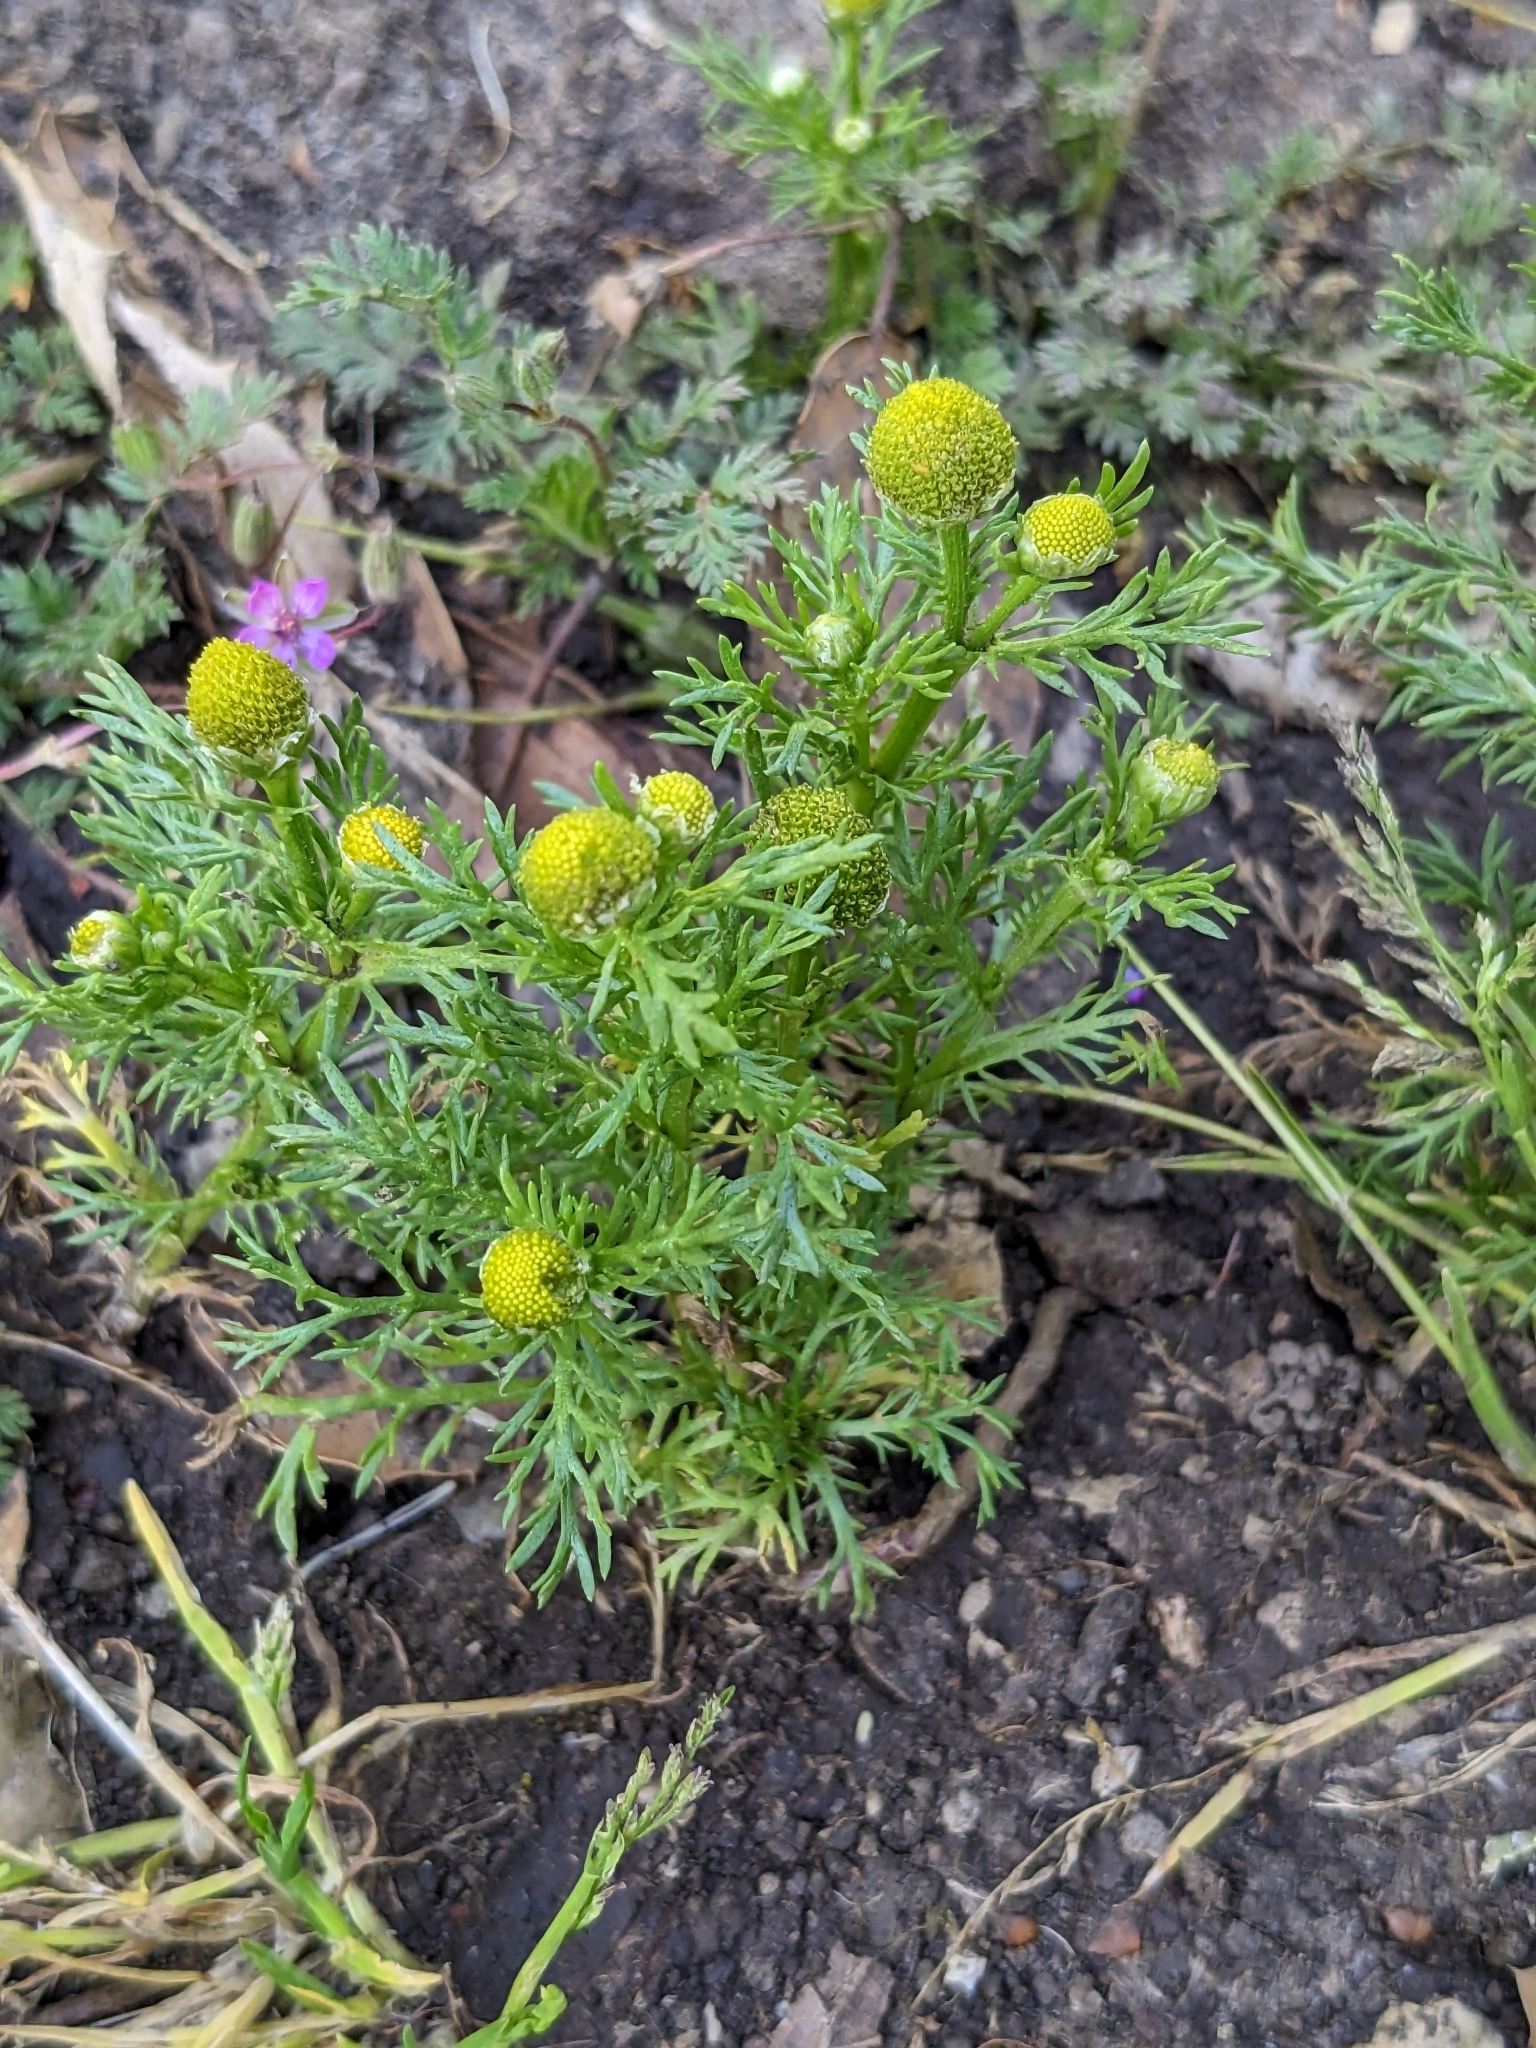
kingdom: Plantae
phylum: Tracheophyta
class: Magnoliopsida
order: Asterales
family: Asteraceae
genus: Matricaria
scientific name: Matricaria discoidea
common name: Disc mayweed
